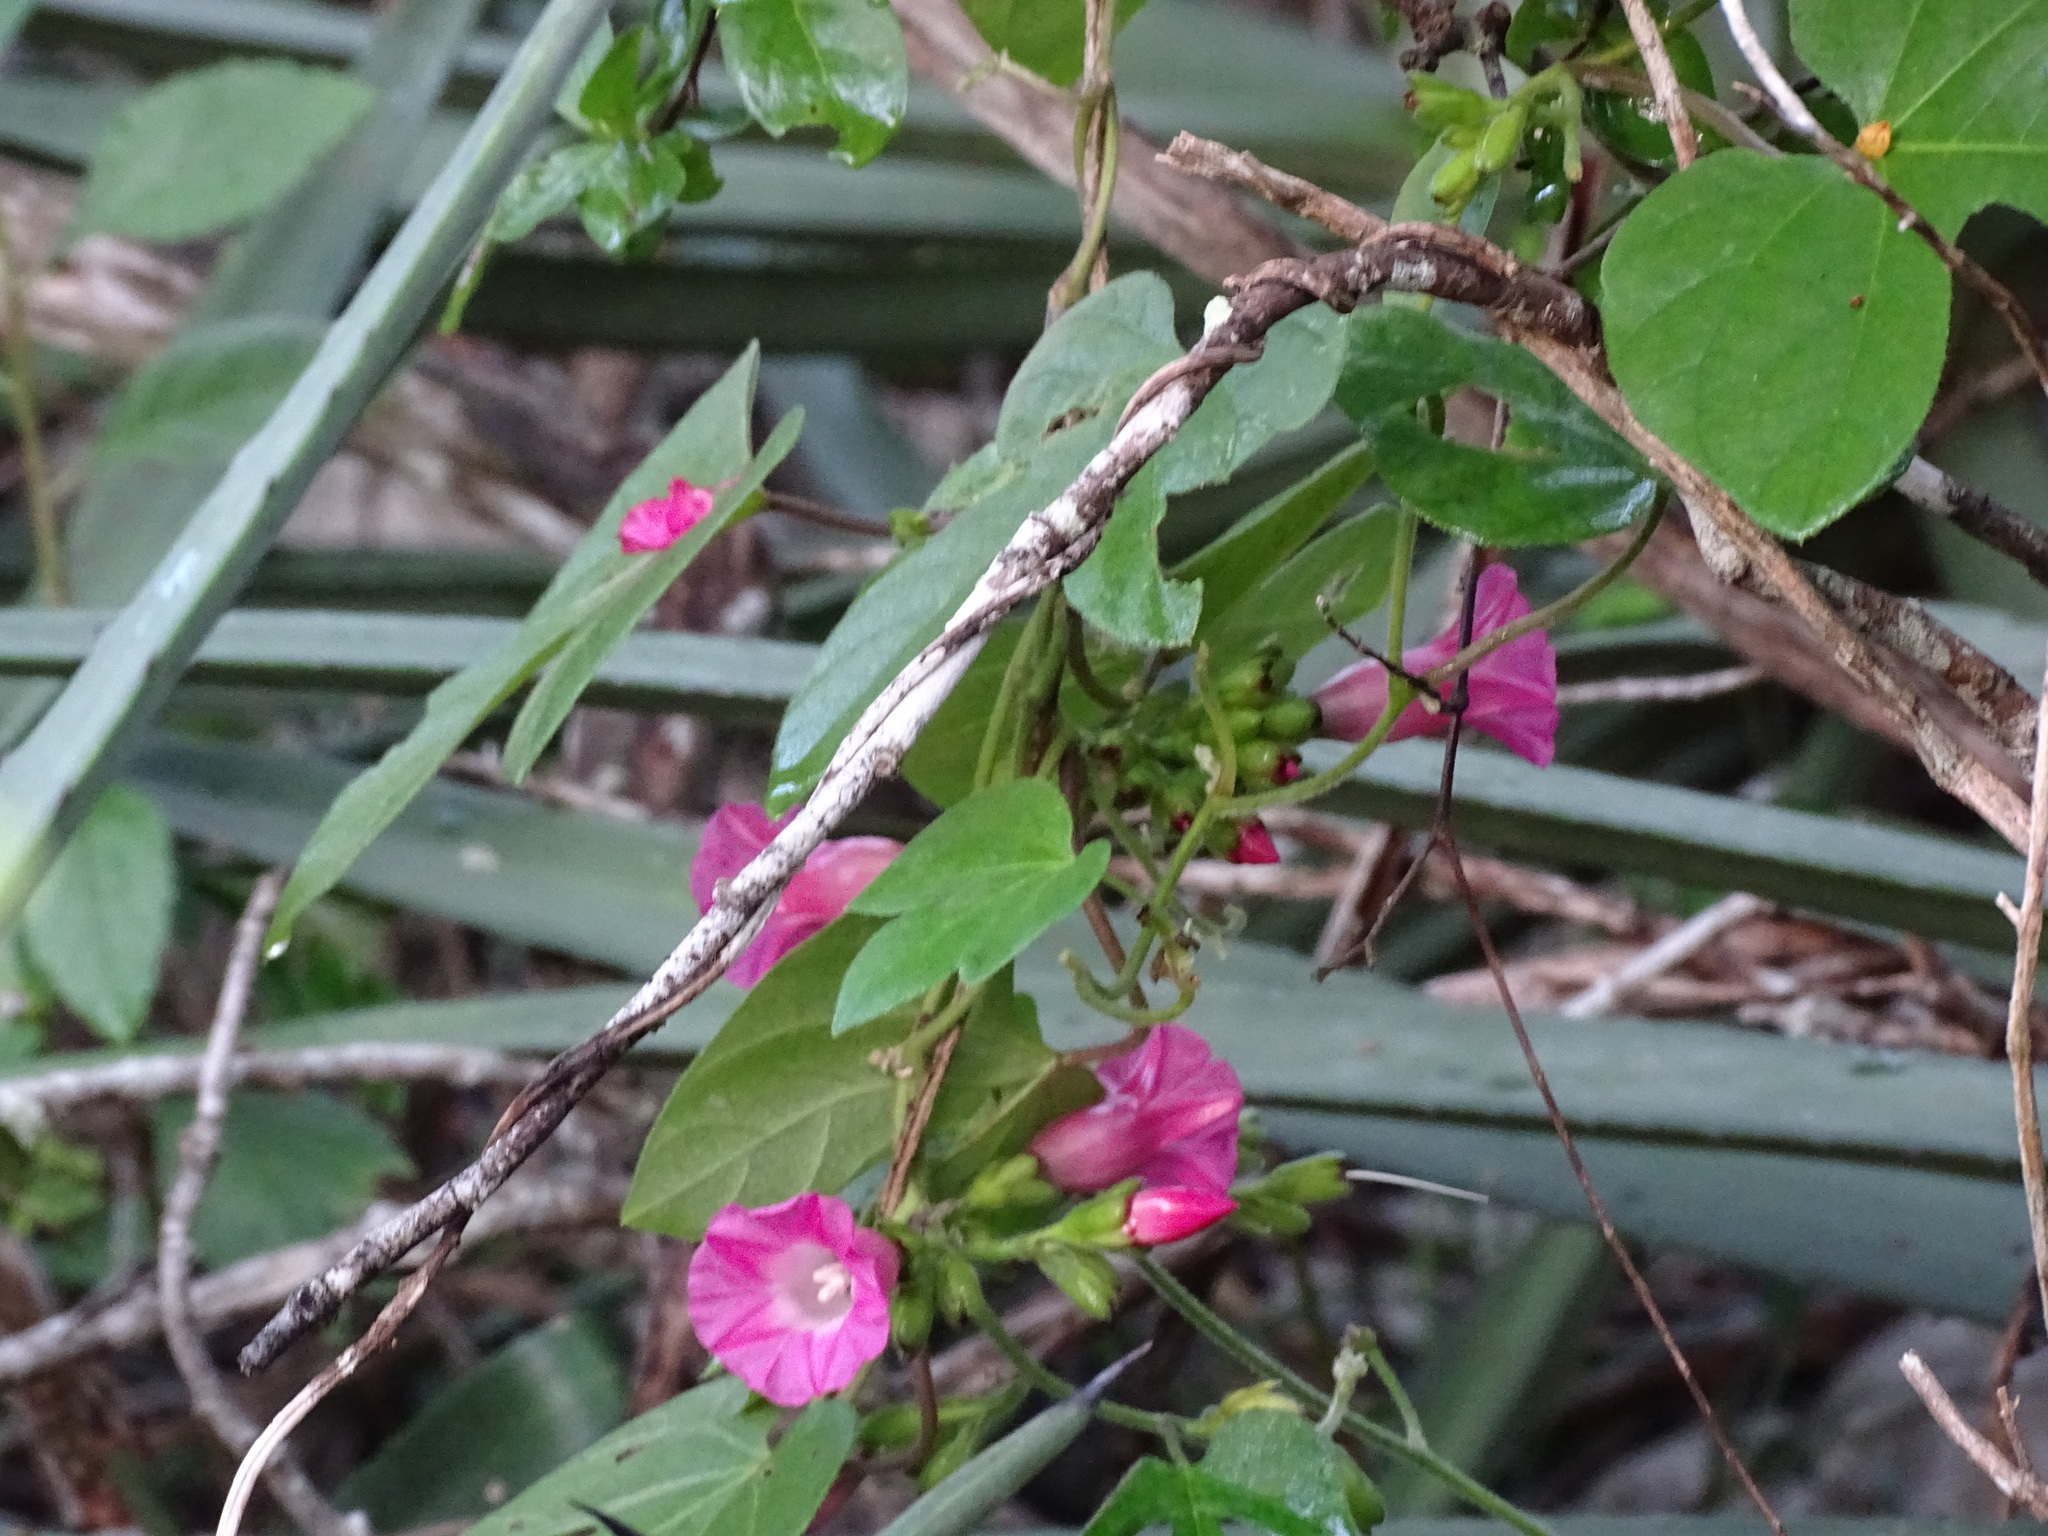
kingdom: Plantae
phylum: Tracheophyta
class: Magnoliopsida
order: Solanales
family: Convolvulaceae
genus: Ipomoea
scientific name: Ipomoea peteri
